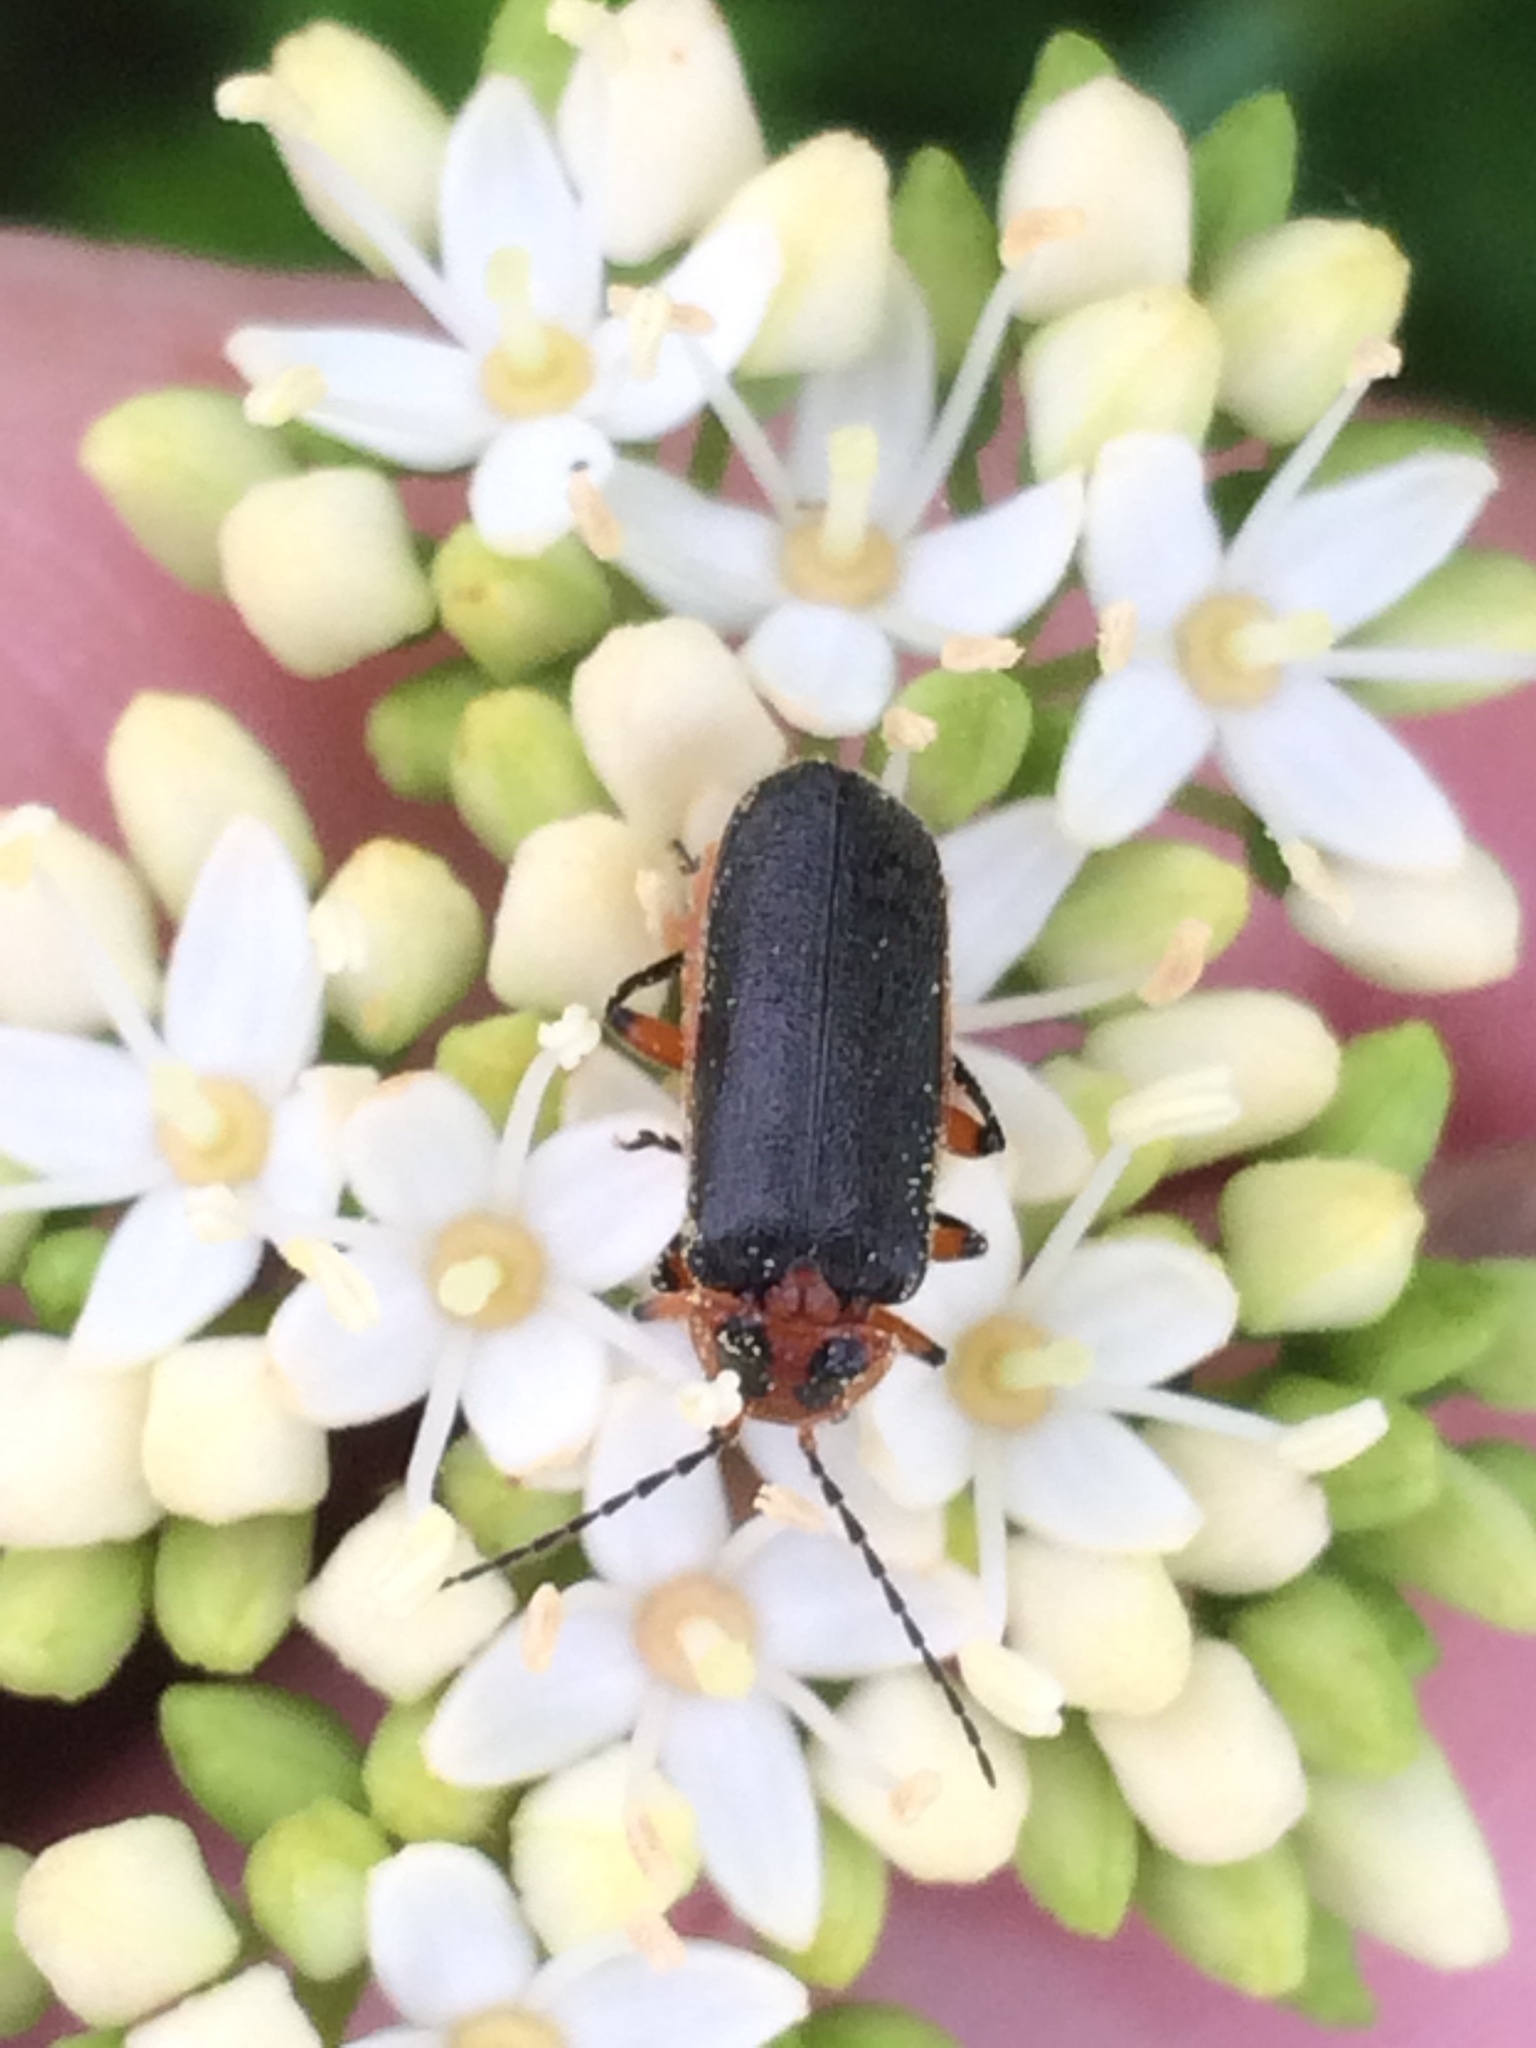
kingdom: Animalia
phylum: Arthropoda
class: Insecta
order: Coleoptera
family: Cantharidae
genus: Atalantycha
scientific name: Atalantycha bilineata
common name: Two-lined leatherwing
